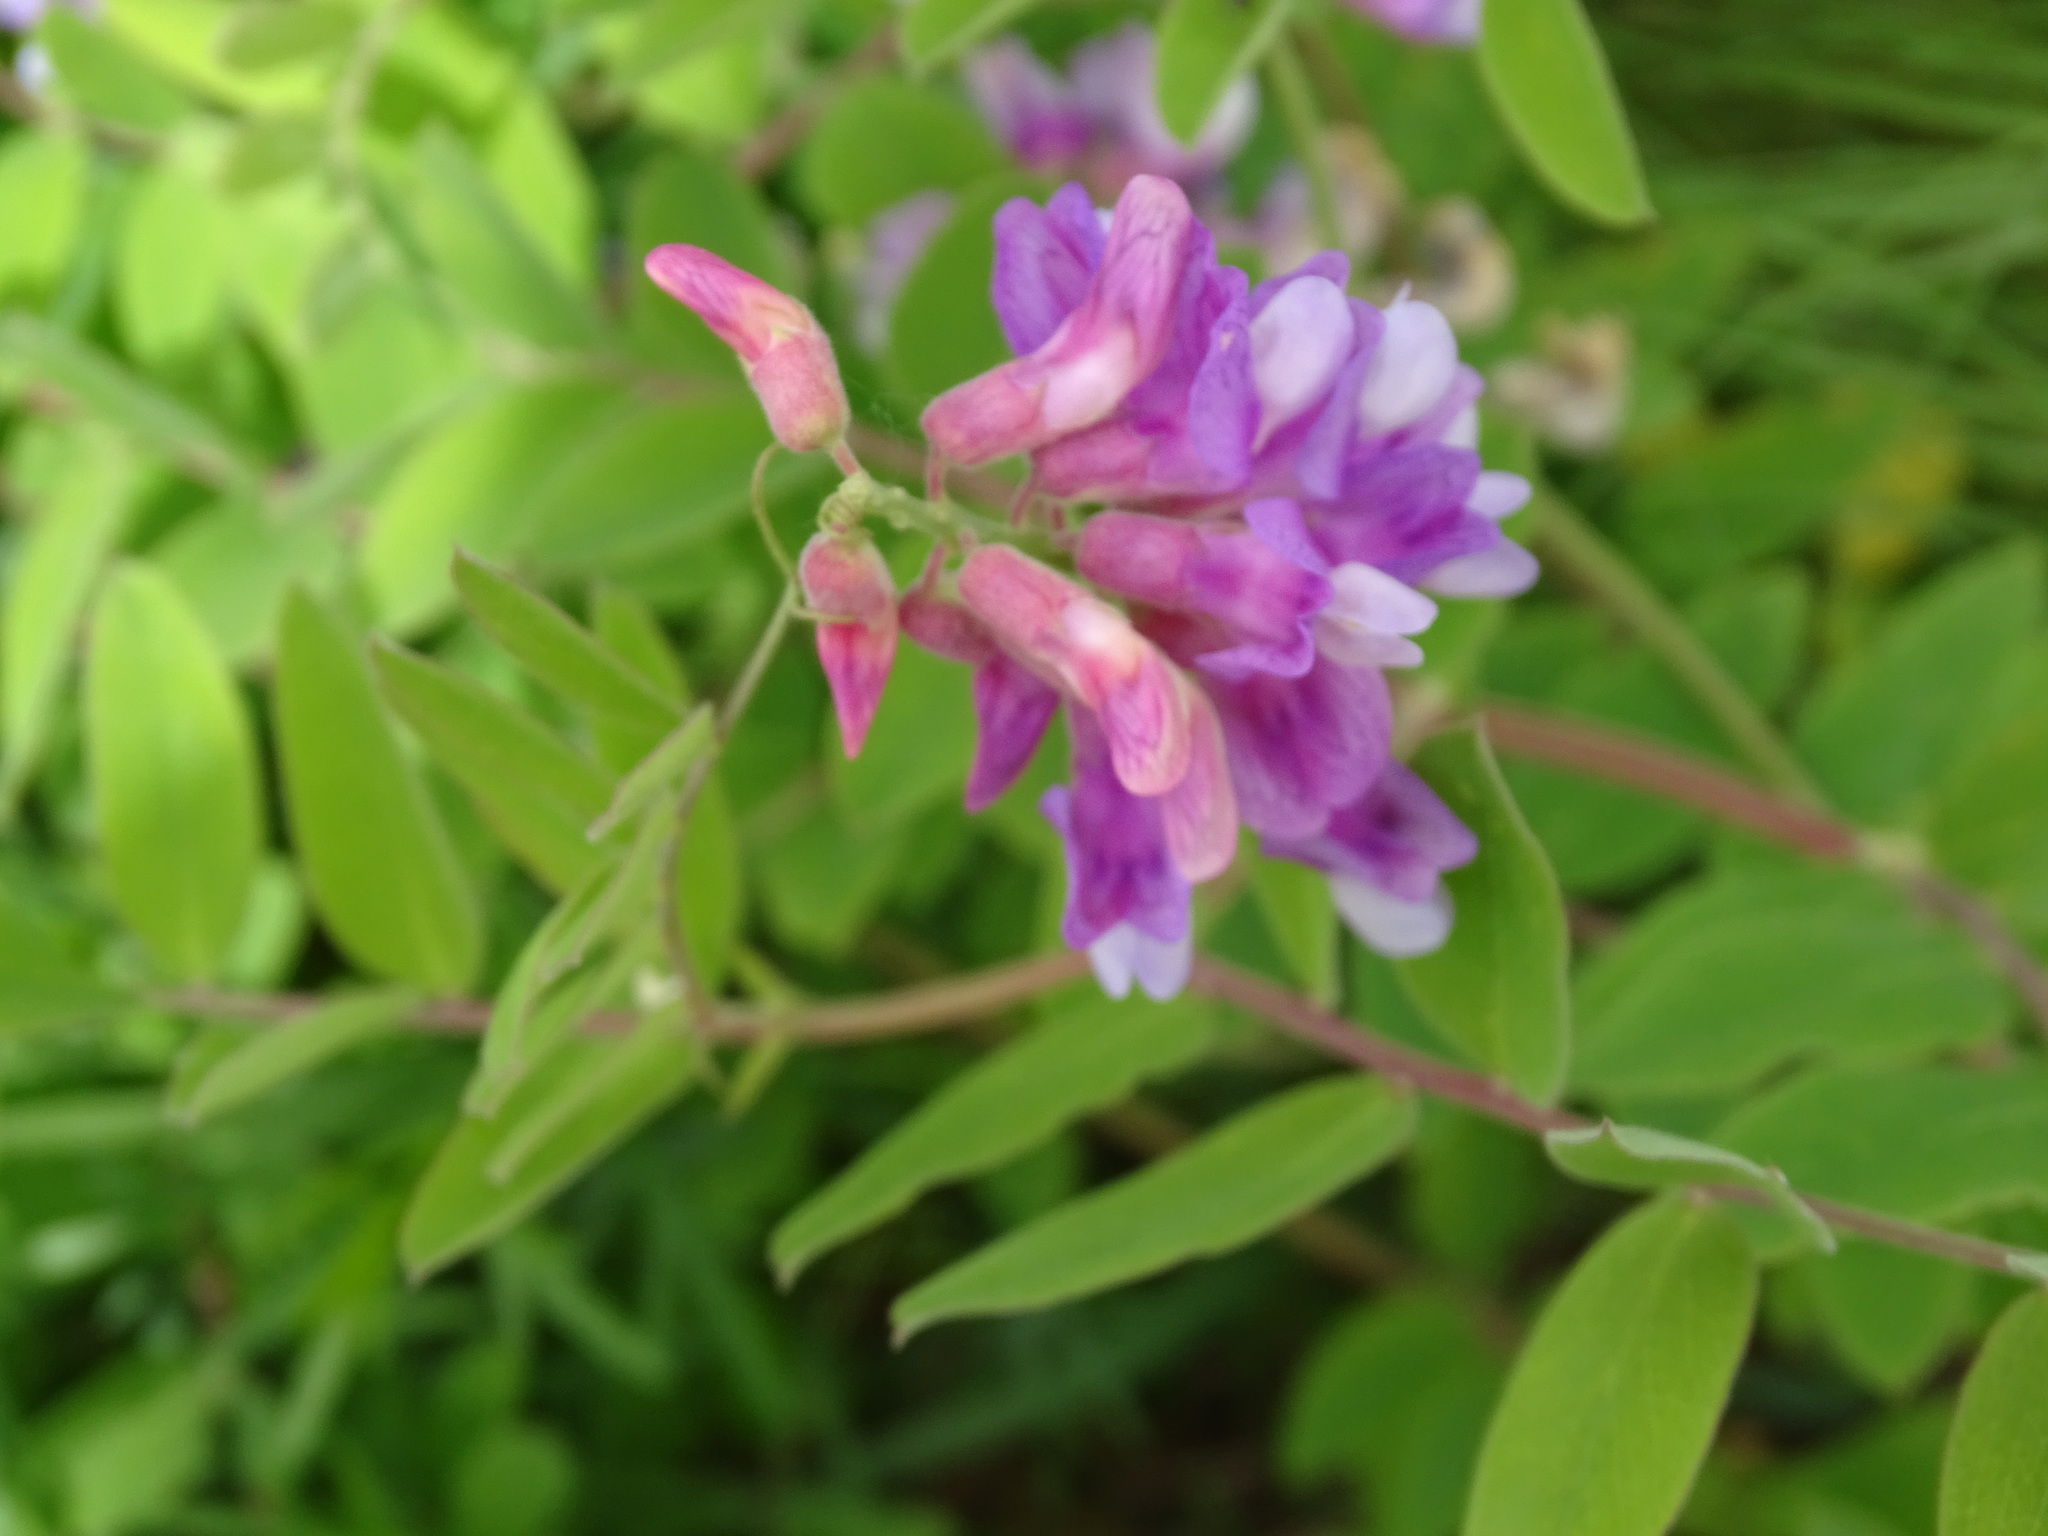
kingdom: Plantae
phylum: Tracheophyta
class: Magnoliopsida
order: Fabales
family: Fabaceae
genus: Lathyrus
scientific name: Lathyrus venosus
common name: Forest-pea
